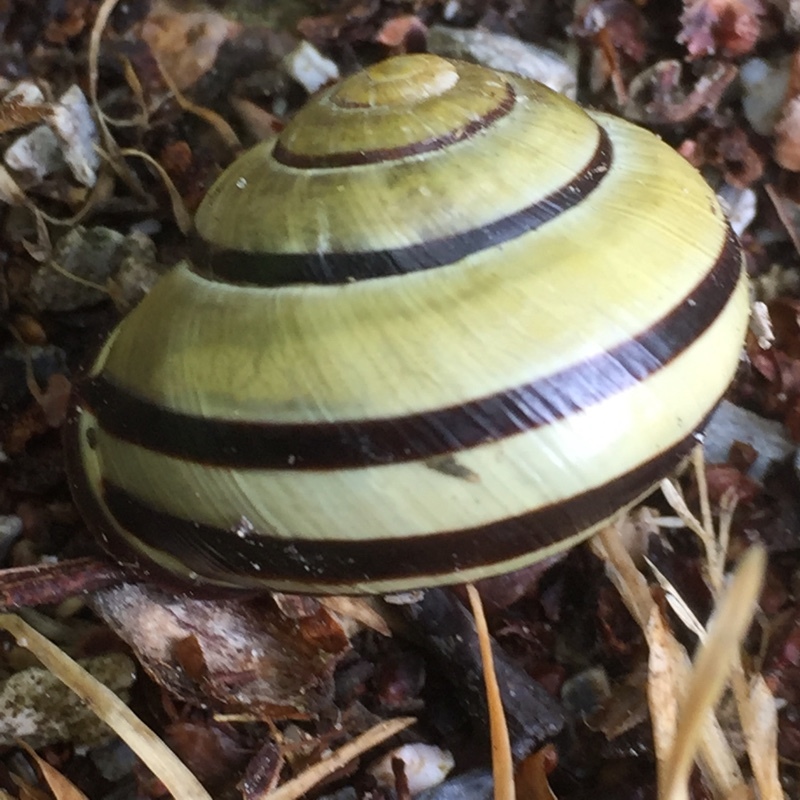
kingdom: Animalia
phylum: Mollusca
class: Gastropoda
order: Stylommatophora
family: Helicidae
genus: Cepaea
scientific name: Cepaea nemoralis
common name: Grovesnail
